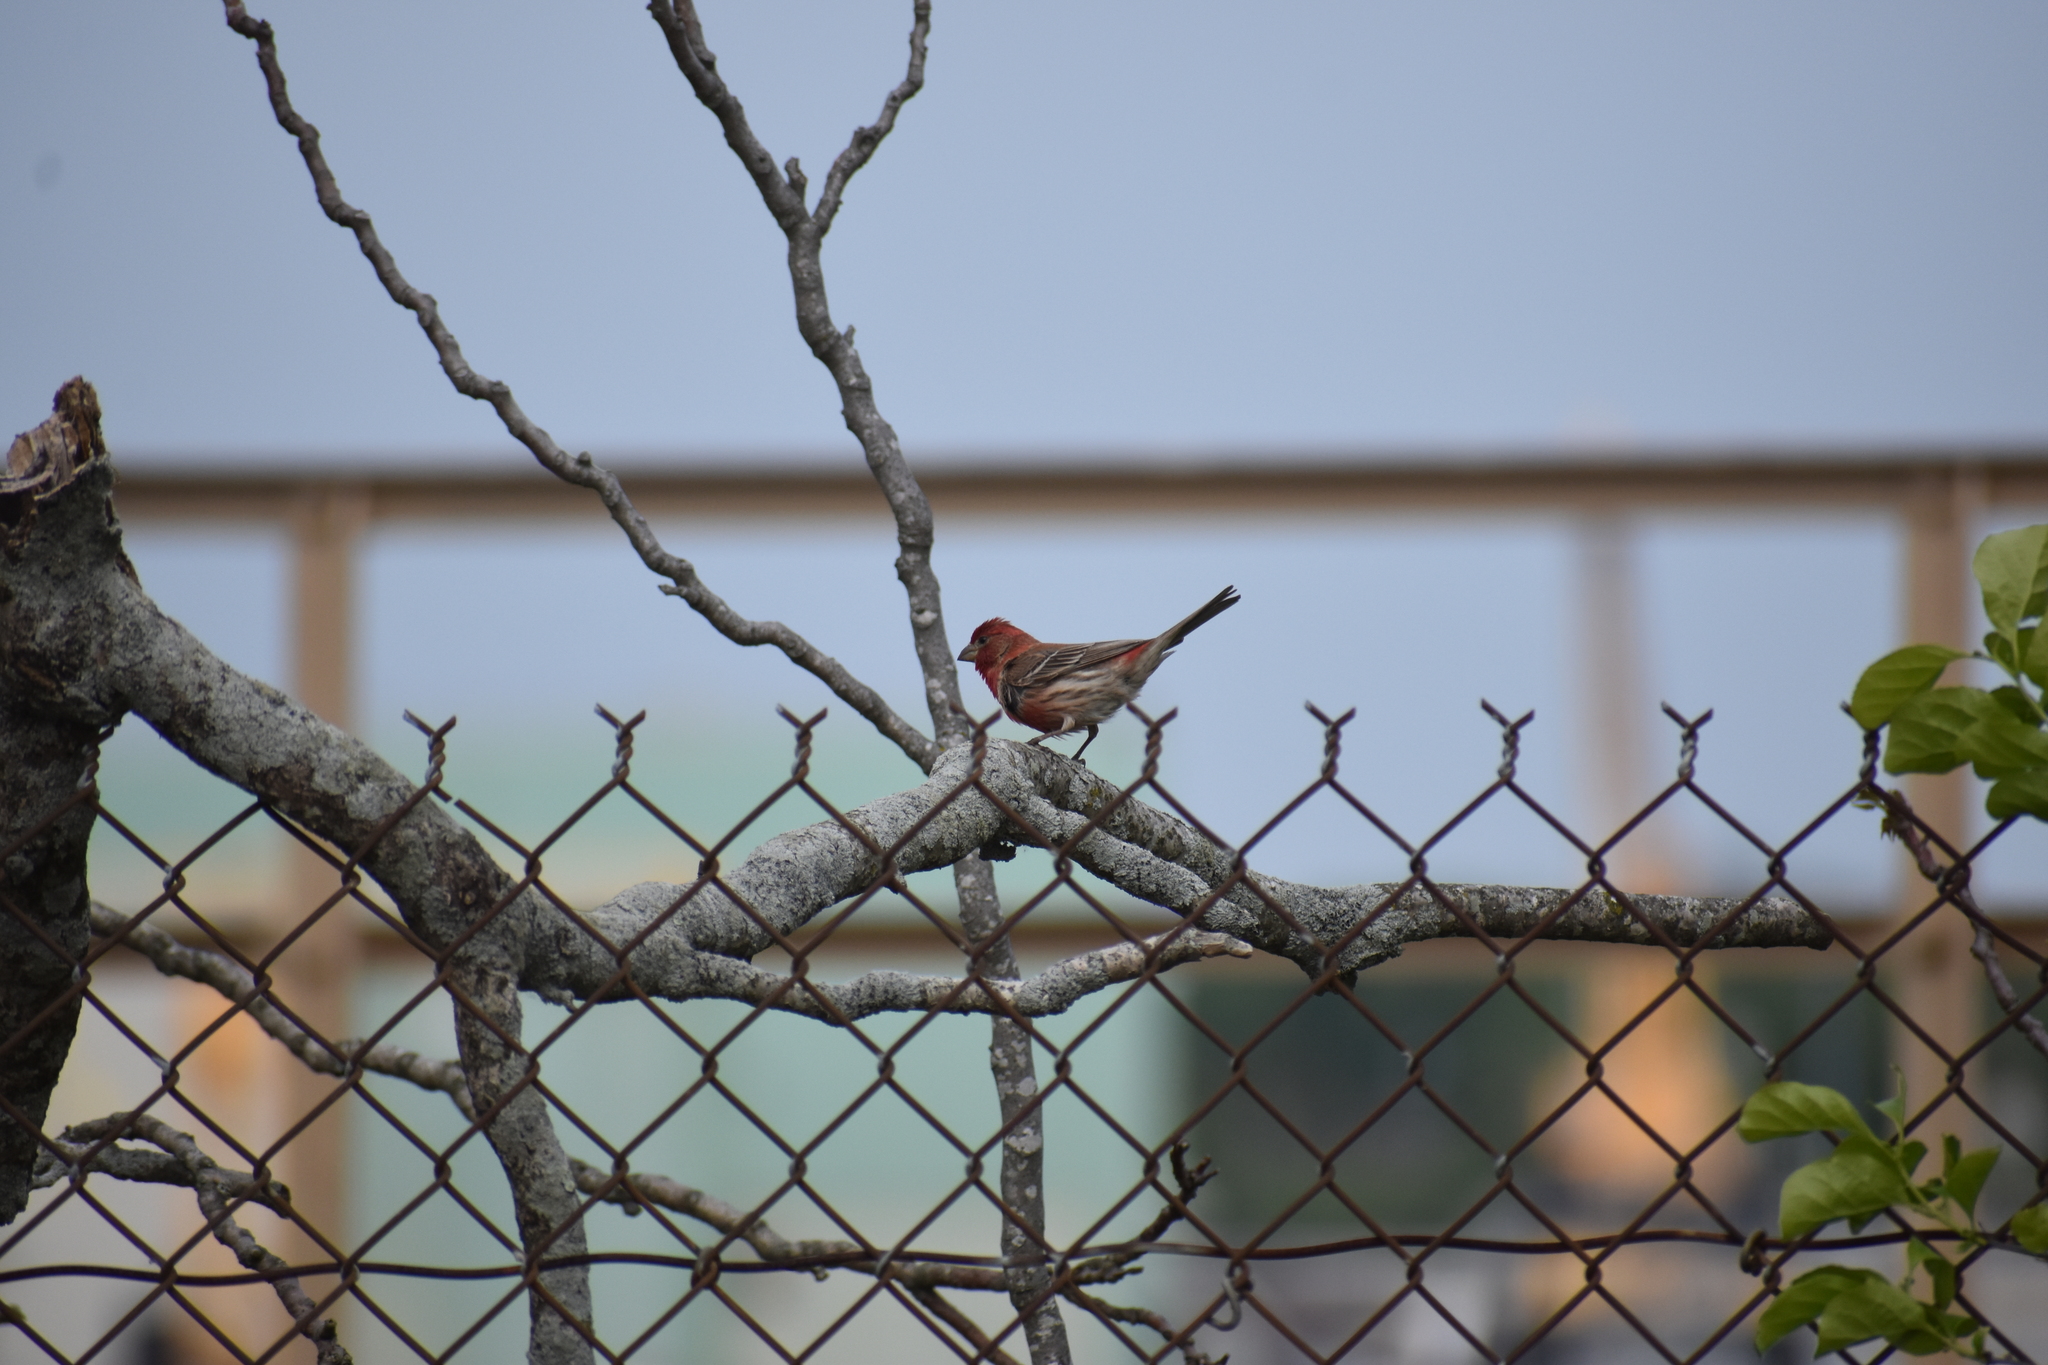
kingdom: Animalia
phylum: Chordata
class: Aves
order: Passeriformes
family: Fringillidae
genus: Haemorhous
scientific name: Haemorhous mexicanus
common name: House finch
